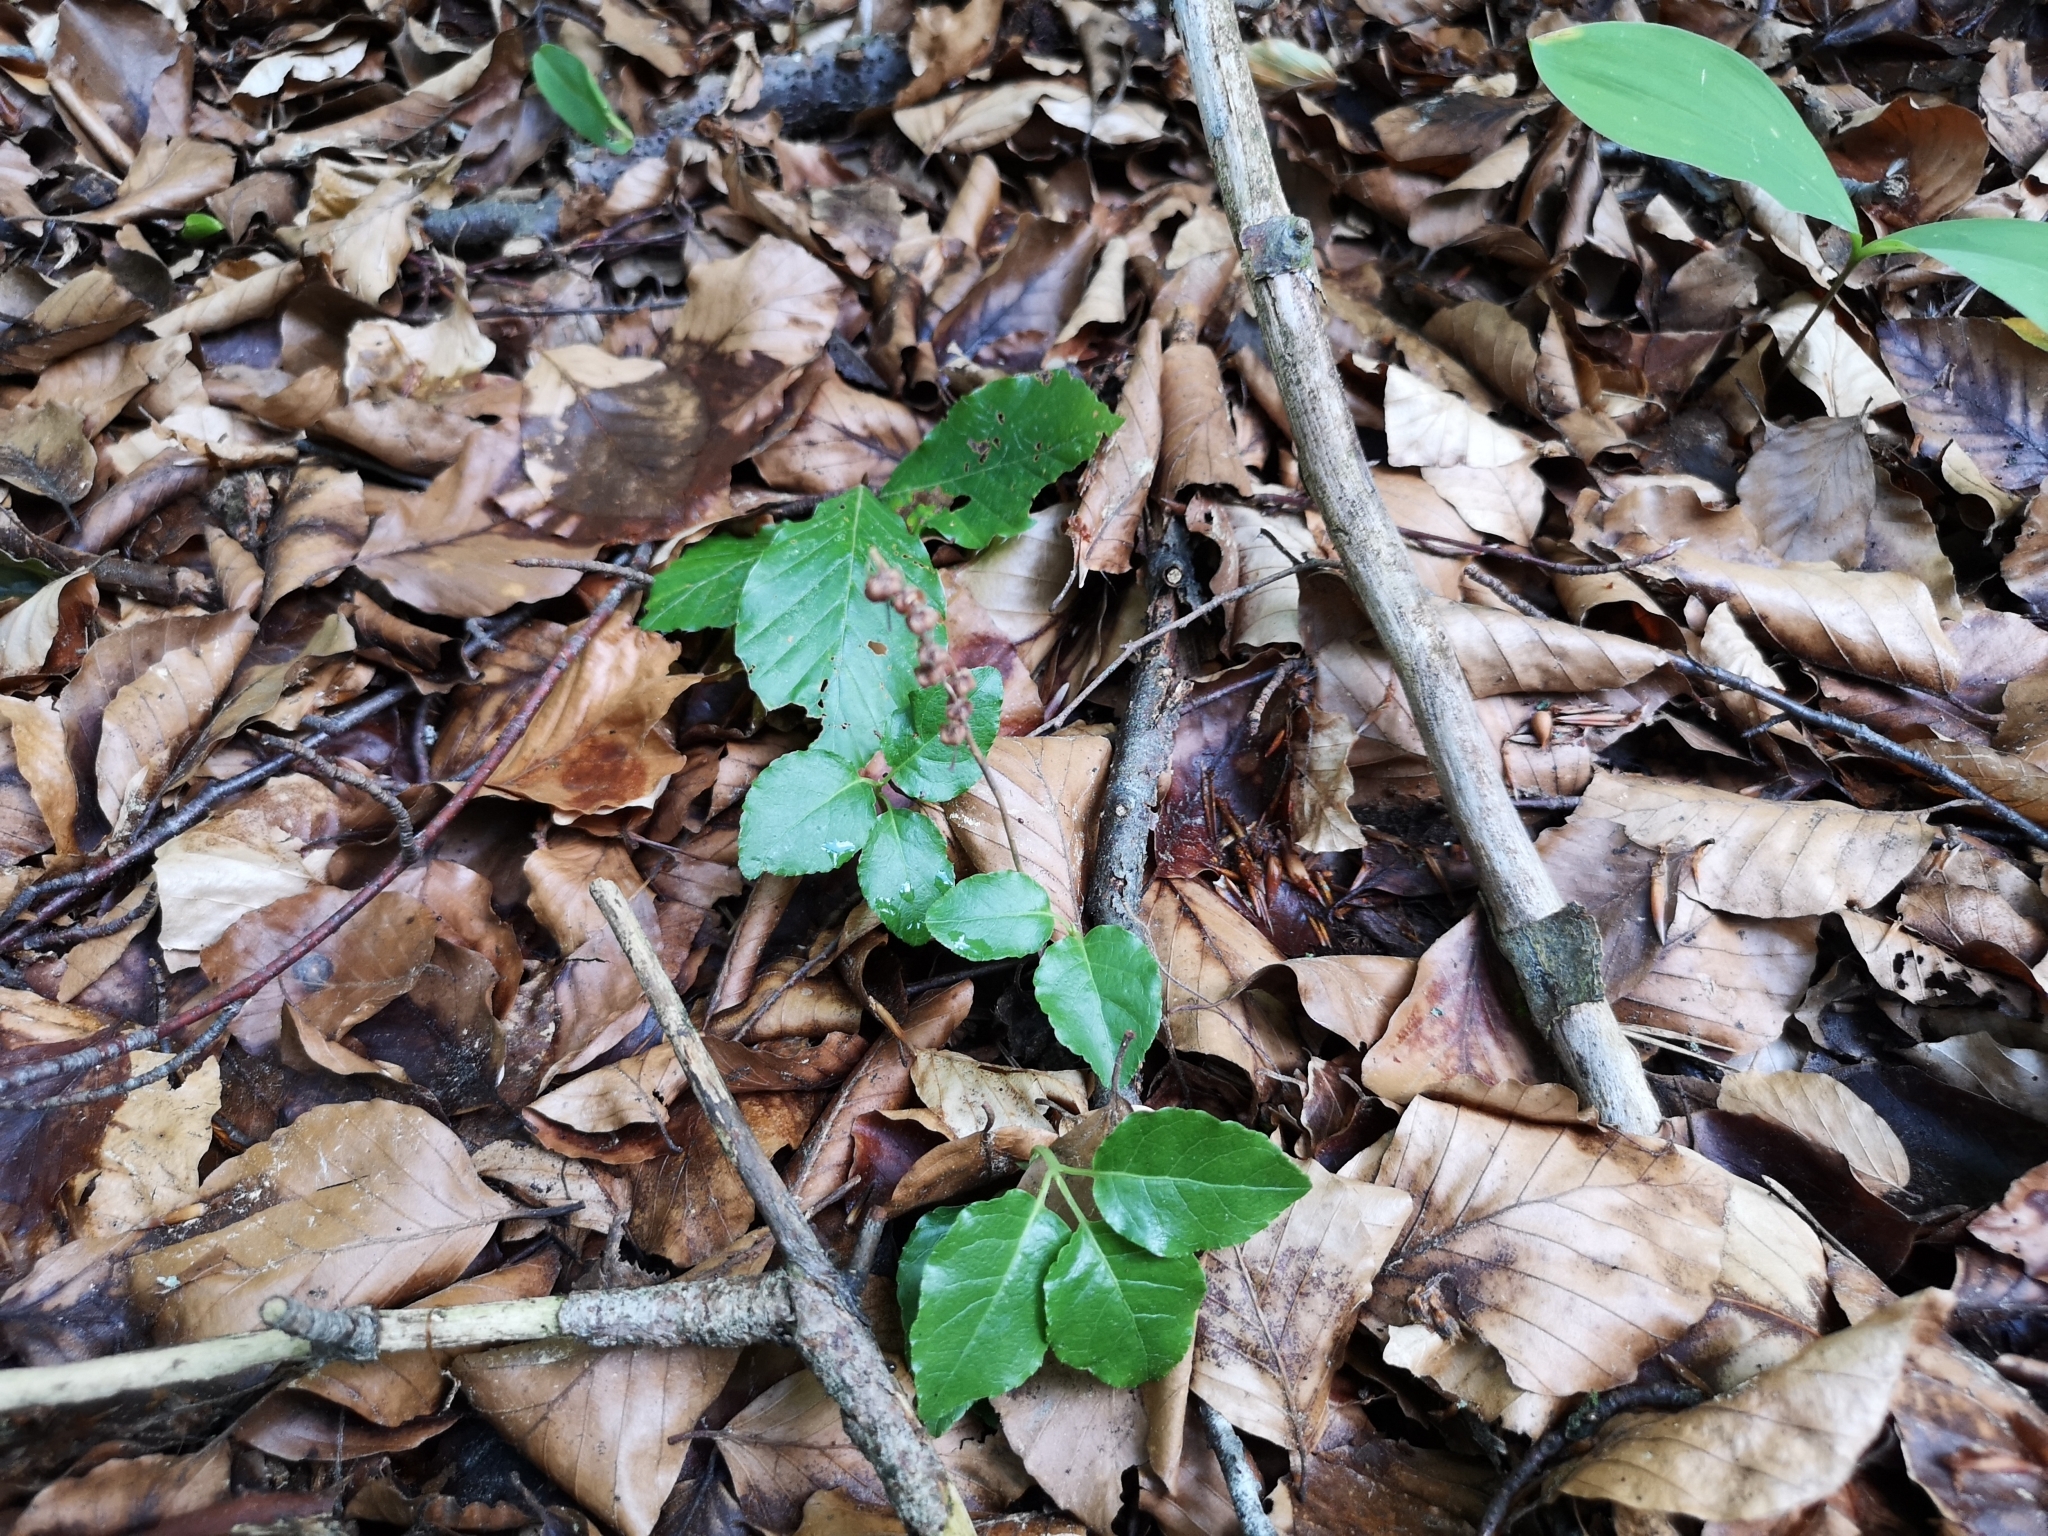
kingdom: Plantae
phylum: Tracheophyta
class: Magnoliopsida
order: Ericales
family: Ericaceae
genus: Orthilia
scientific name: Orthilia secunda
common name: One-sided orthilia
